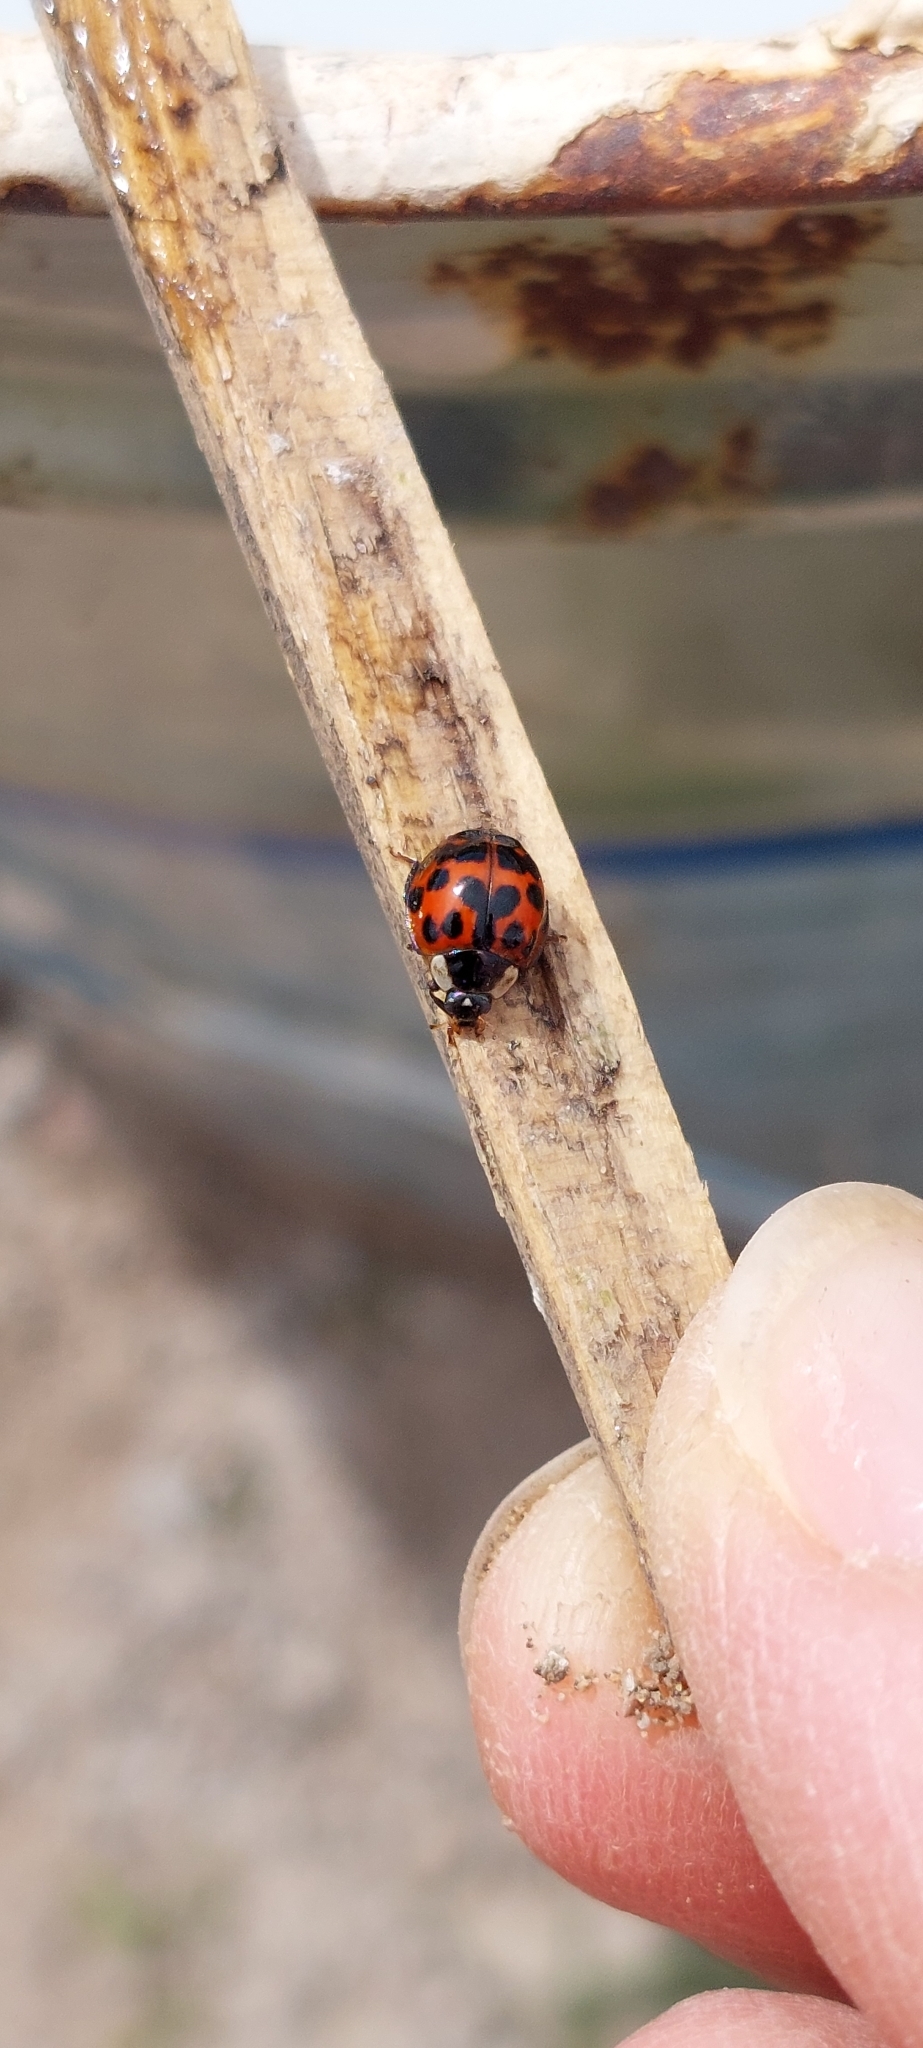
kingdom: Animalia
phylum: Arthropoda
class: Insecta
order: Coleoptera
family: Coccinellidae
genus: Harmonia
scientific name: Harmonia axyridis
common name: Harlequin ladybird
